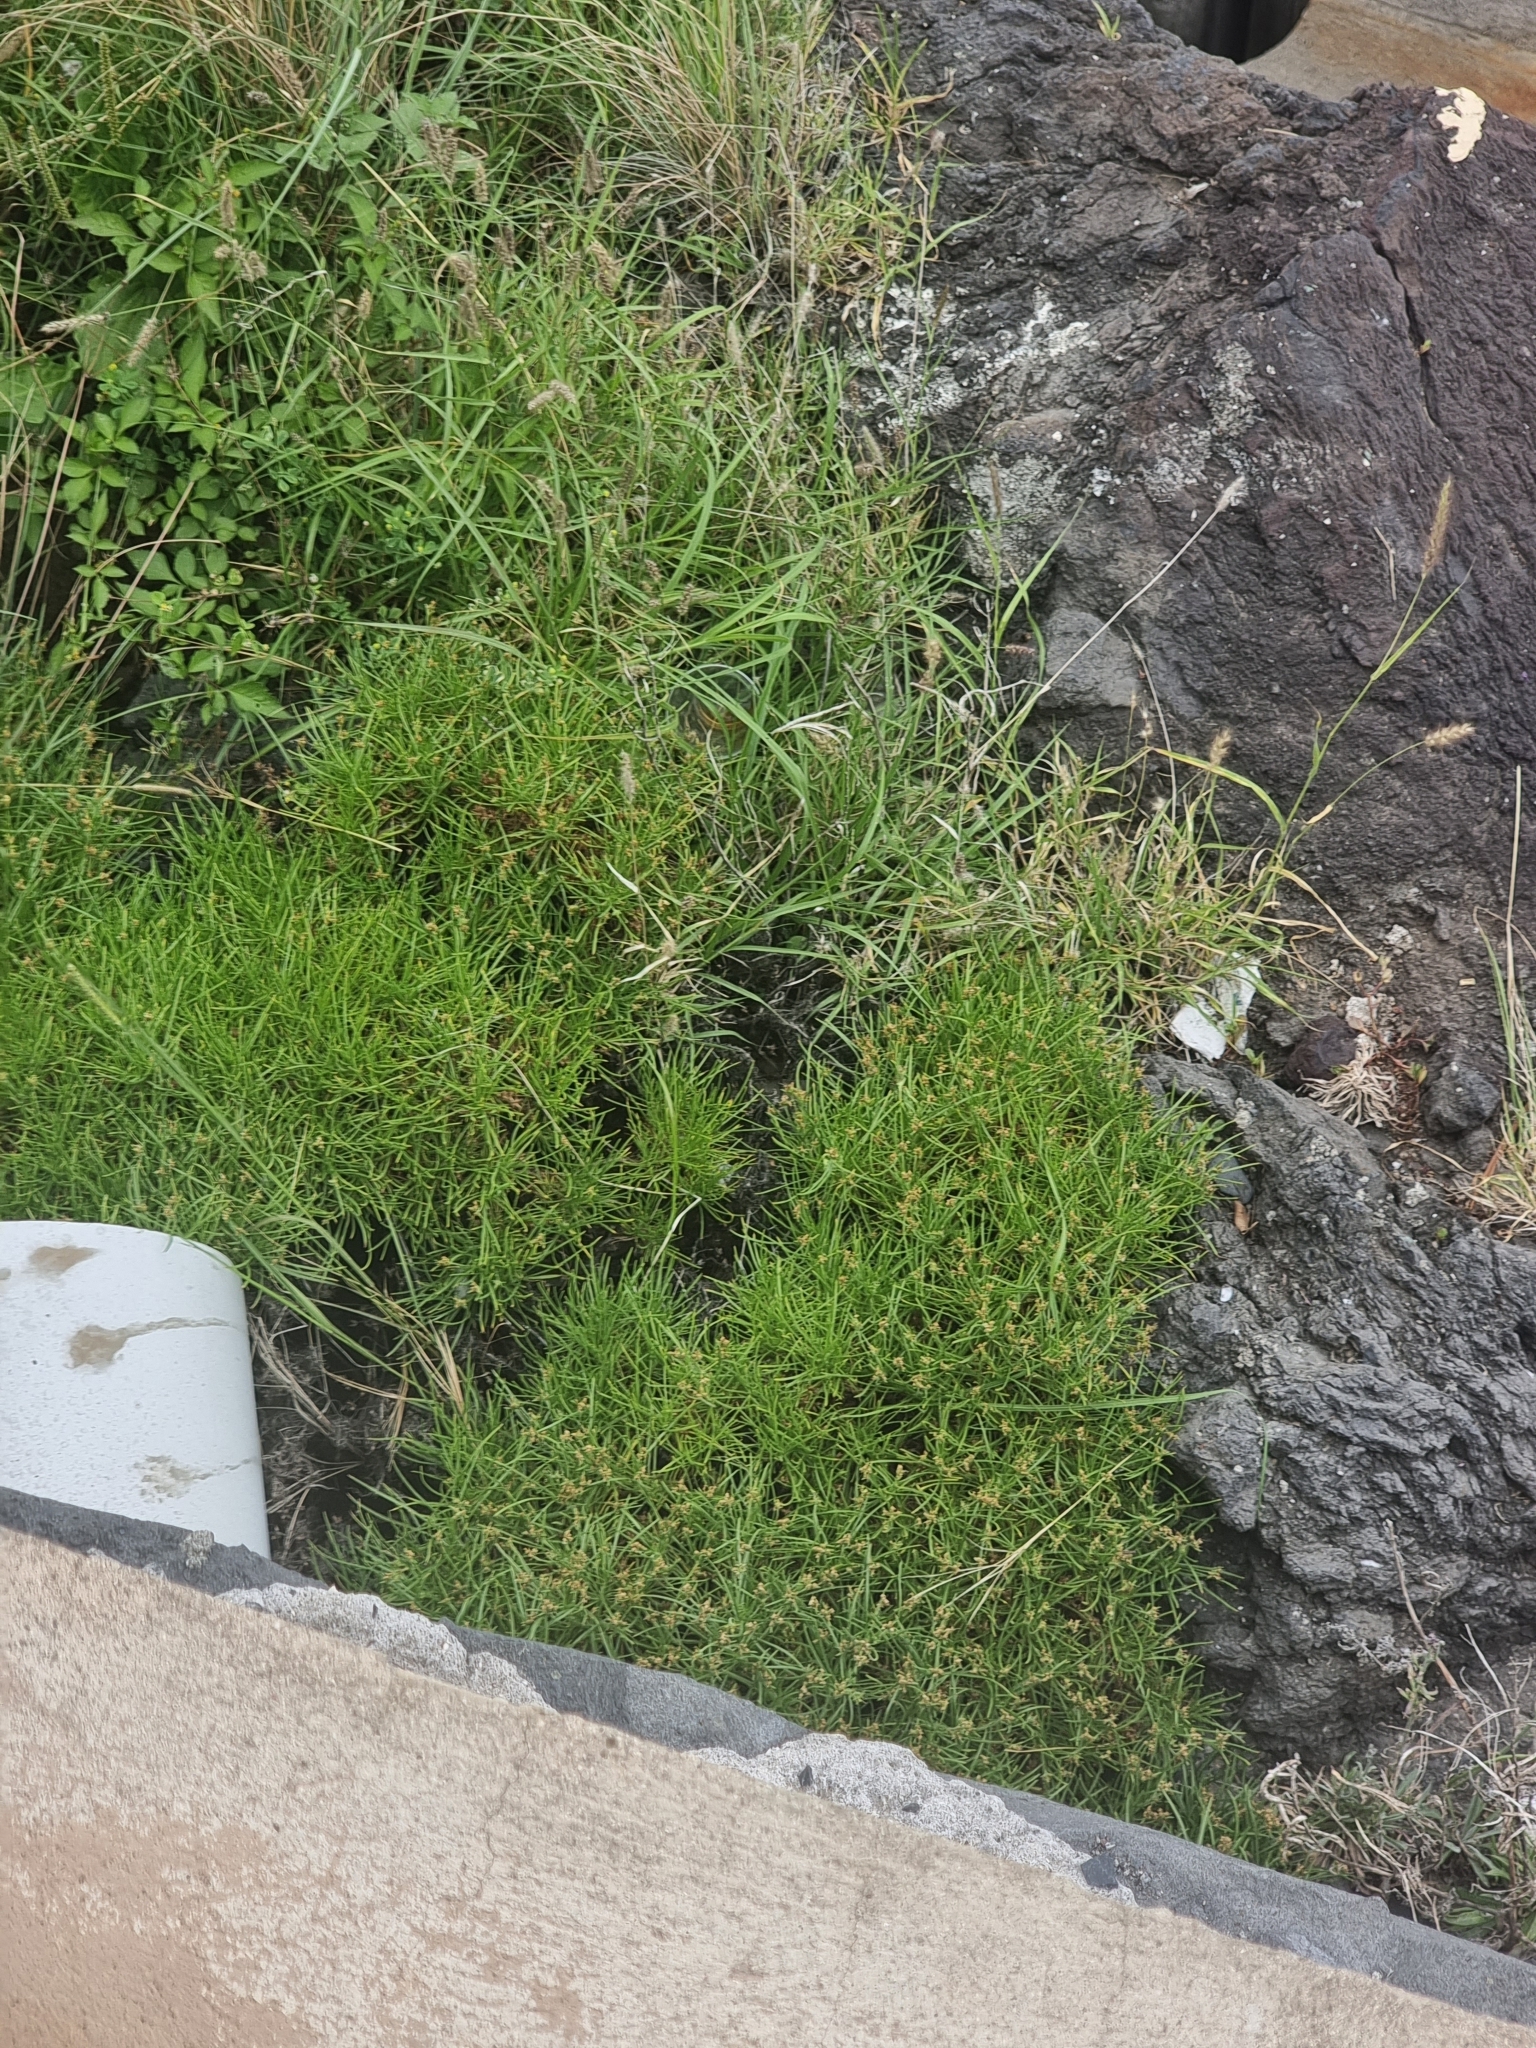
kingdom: Plantae
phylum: Tracheophyta
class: Magnoliopsida
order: Lamiales
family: Plantaginaceae
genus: Plantago
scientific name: Plantago arborescens
